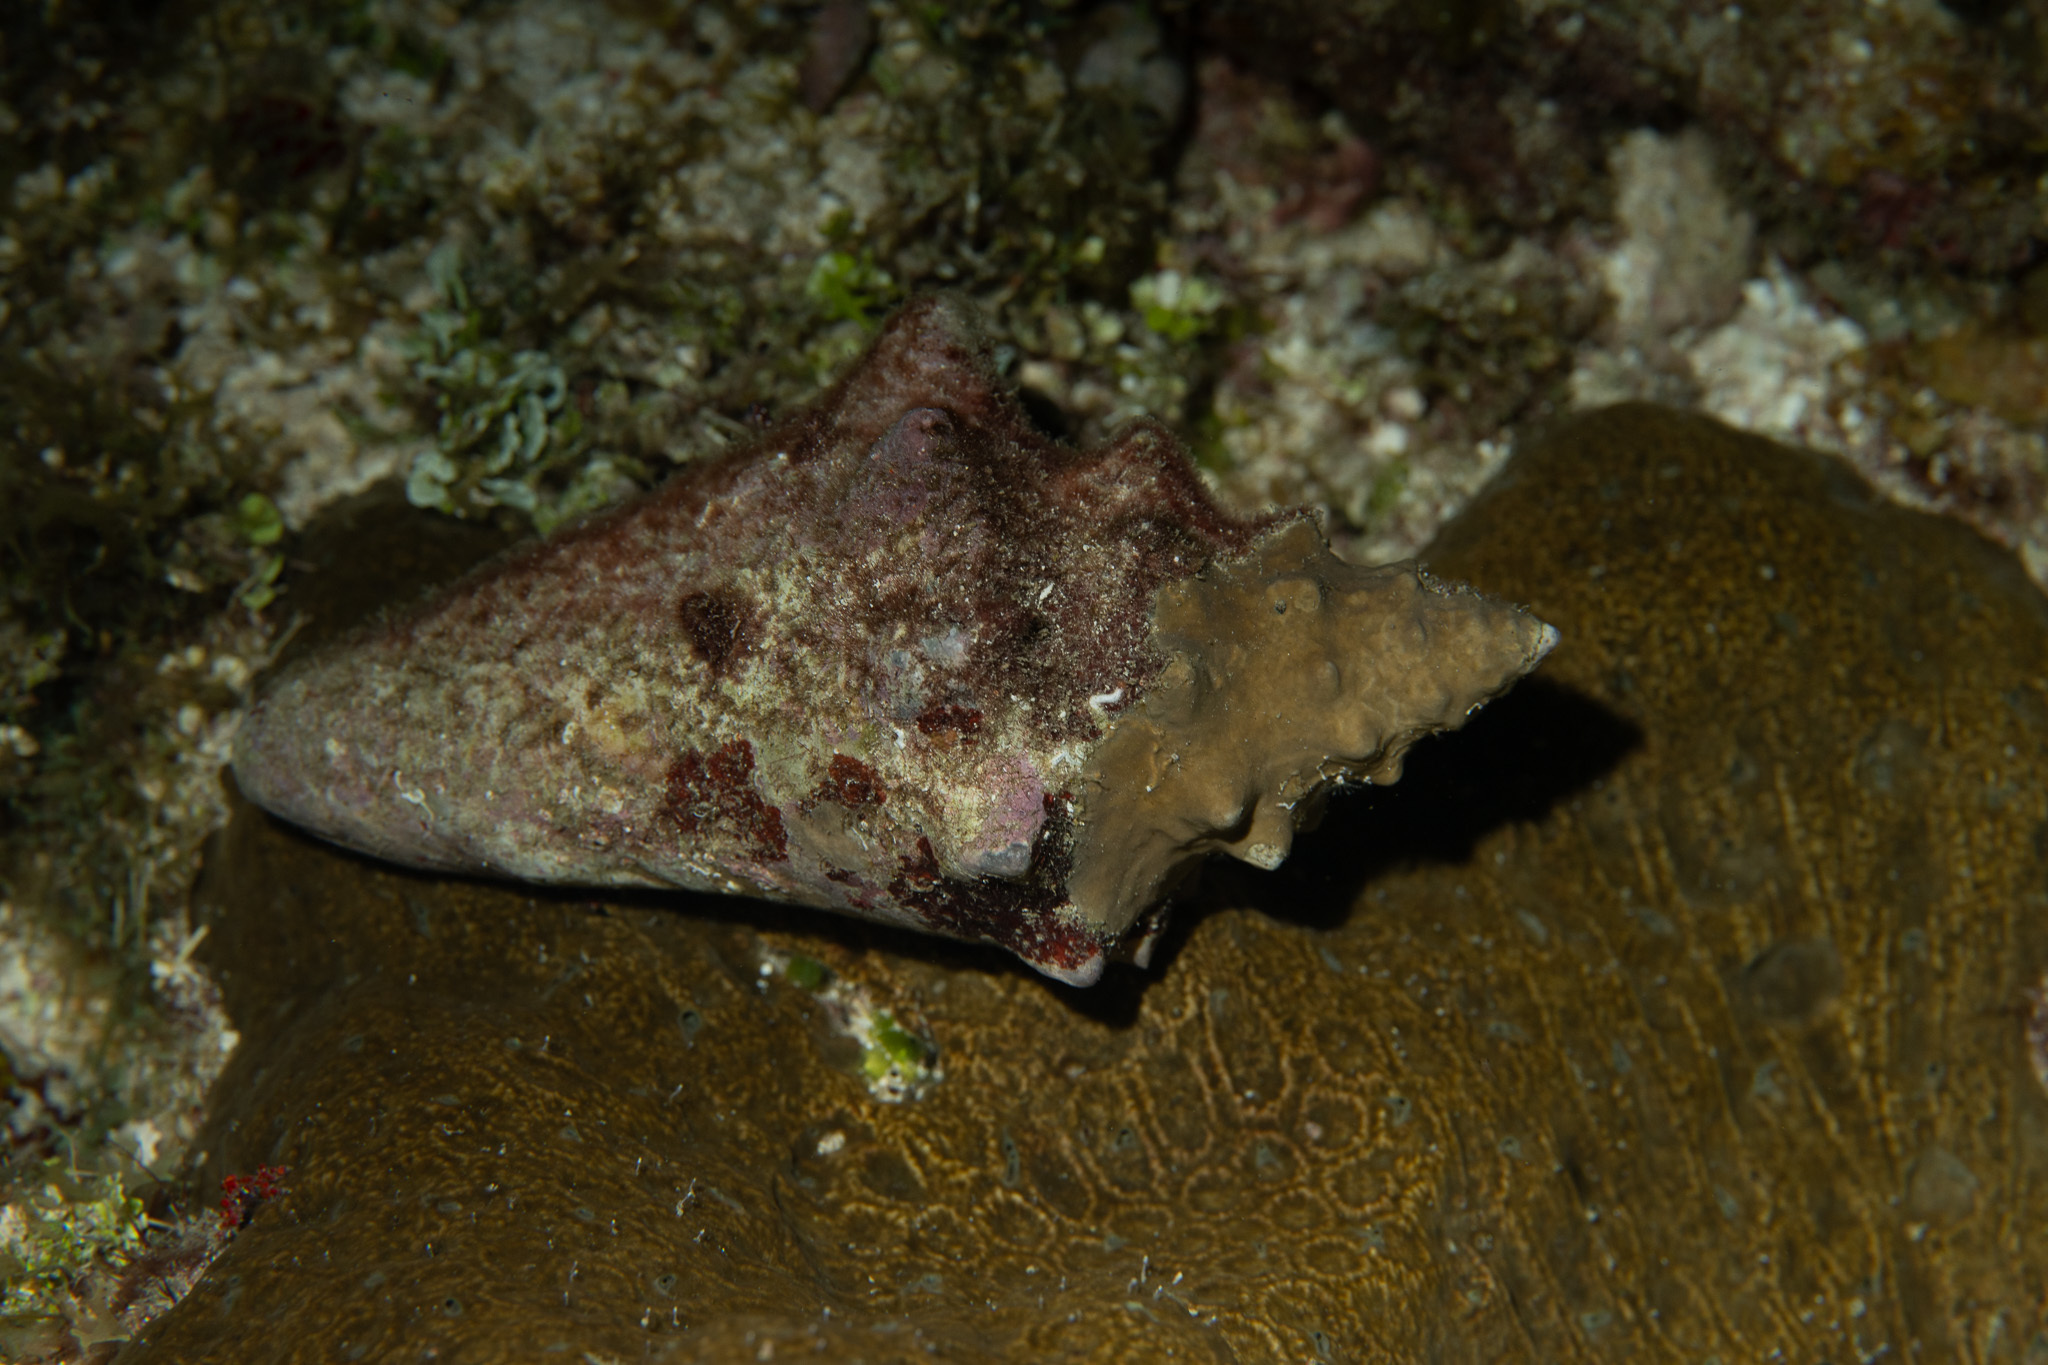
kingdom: Animalia
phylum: Mollusca
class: Gastropoda
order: Littorinimorpha
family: Strombidae
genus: Aliger
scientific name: Aliger gigas
